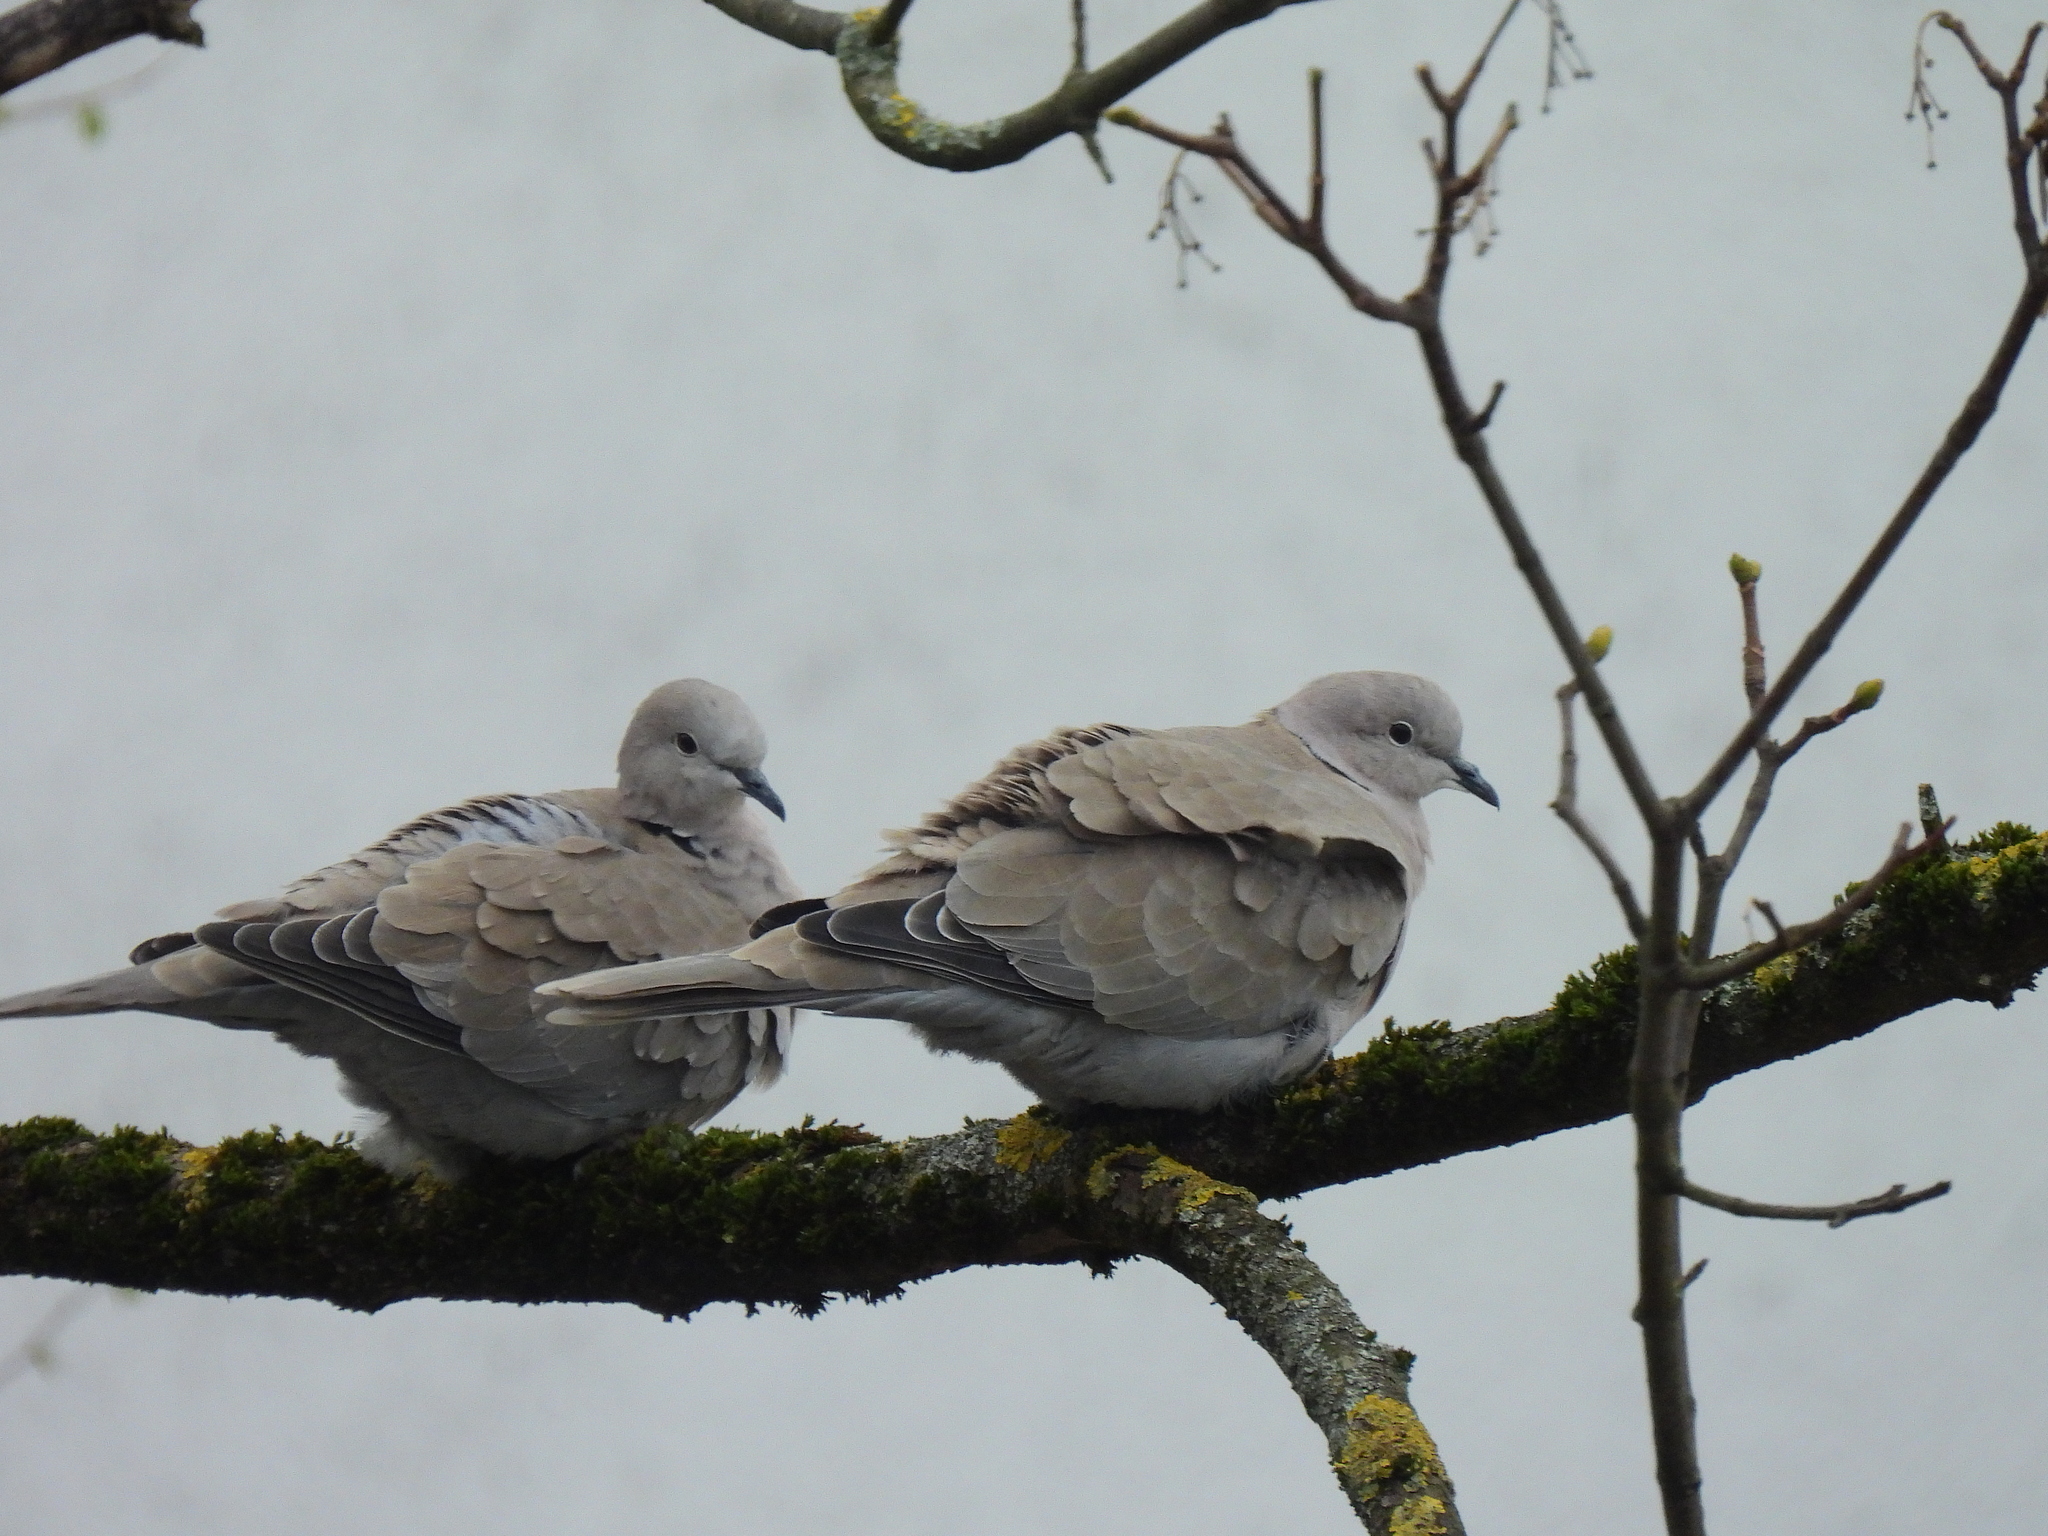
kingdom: Animalia
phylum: Chordata
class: Aves
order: Columbiformes
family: Columbidae
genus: Streptopelia
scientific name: Streptopelia decaocto
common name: Eurasian collared dove
